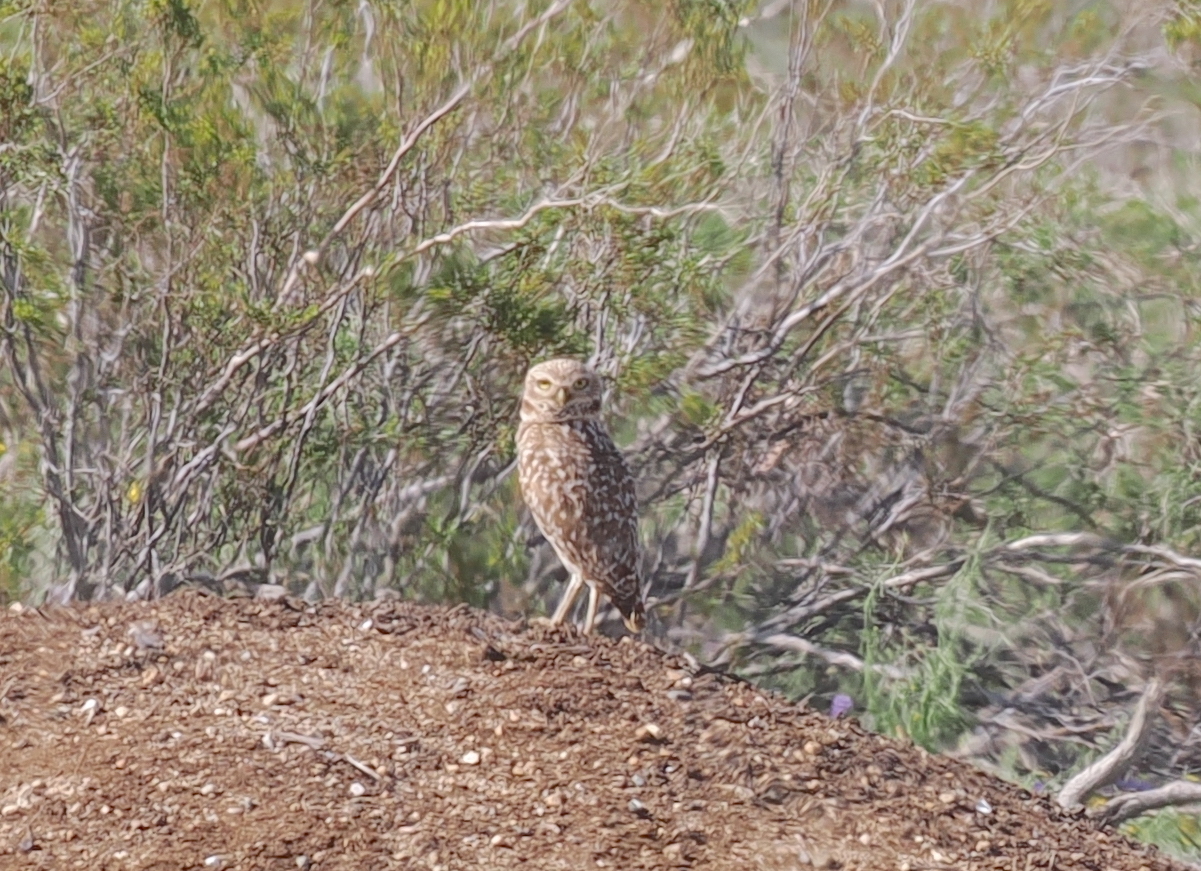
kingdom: Animalia
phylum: Chordata
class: Aves
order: Strigiformes
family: Strigidae
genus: Athene
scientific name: Athene cunicularia
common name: Burrowing owl
